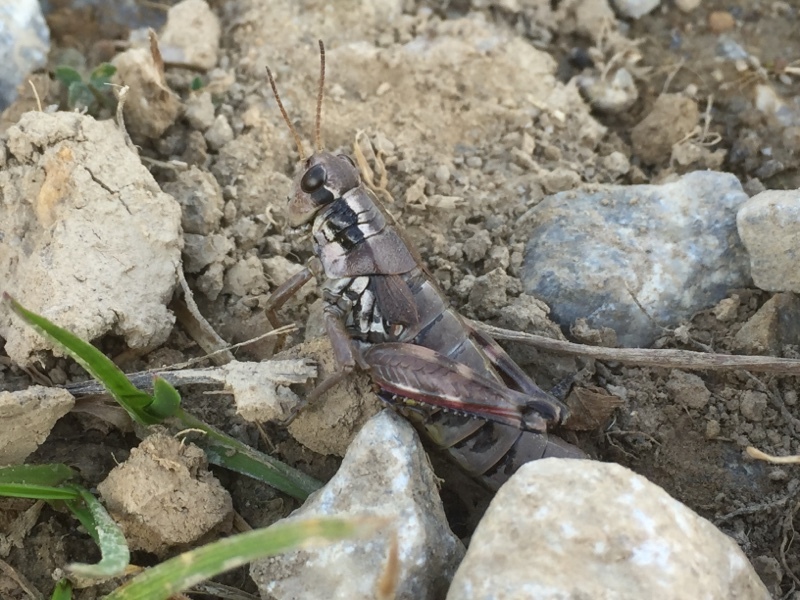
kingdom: Animalia
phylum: Arthropoda
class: Insecta
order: Orthoptera
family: Acrididae
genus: Podisma
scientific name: Podisma pedestris
